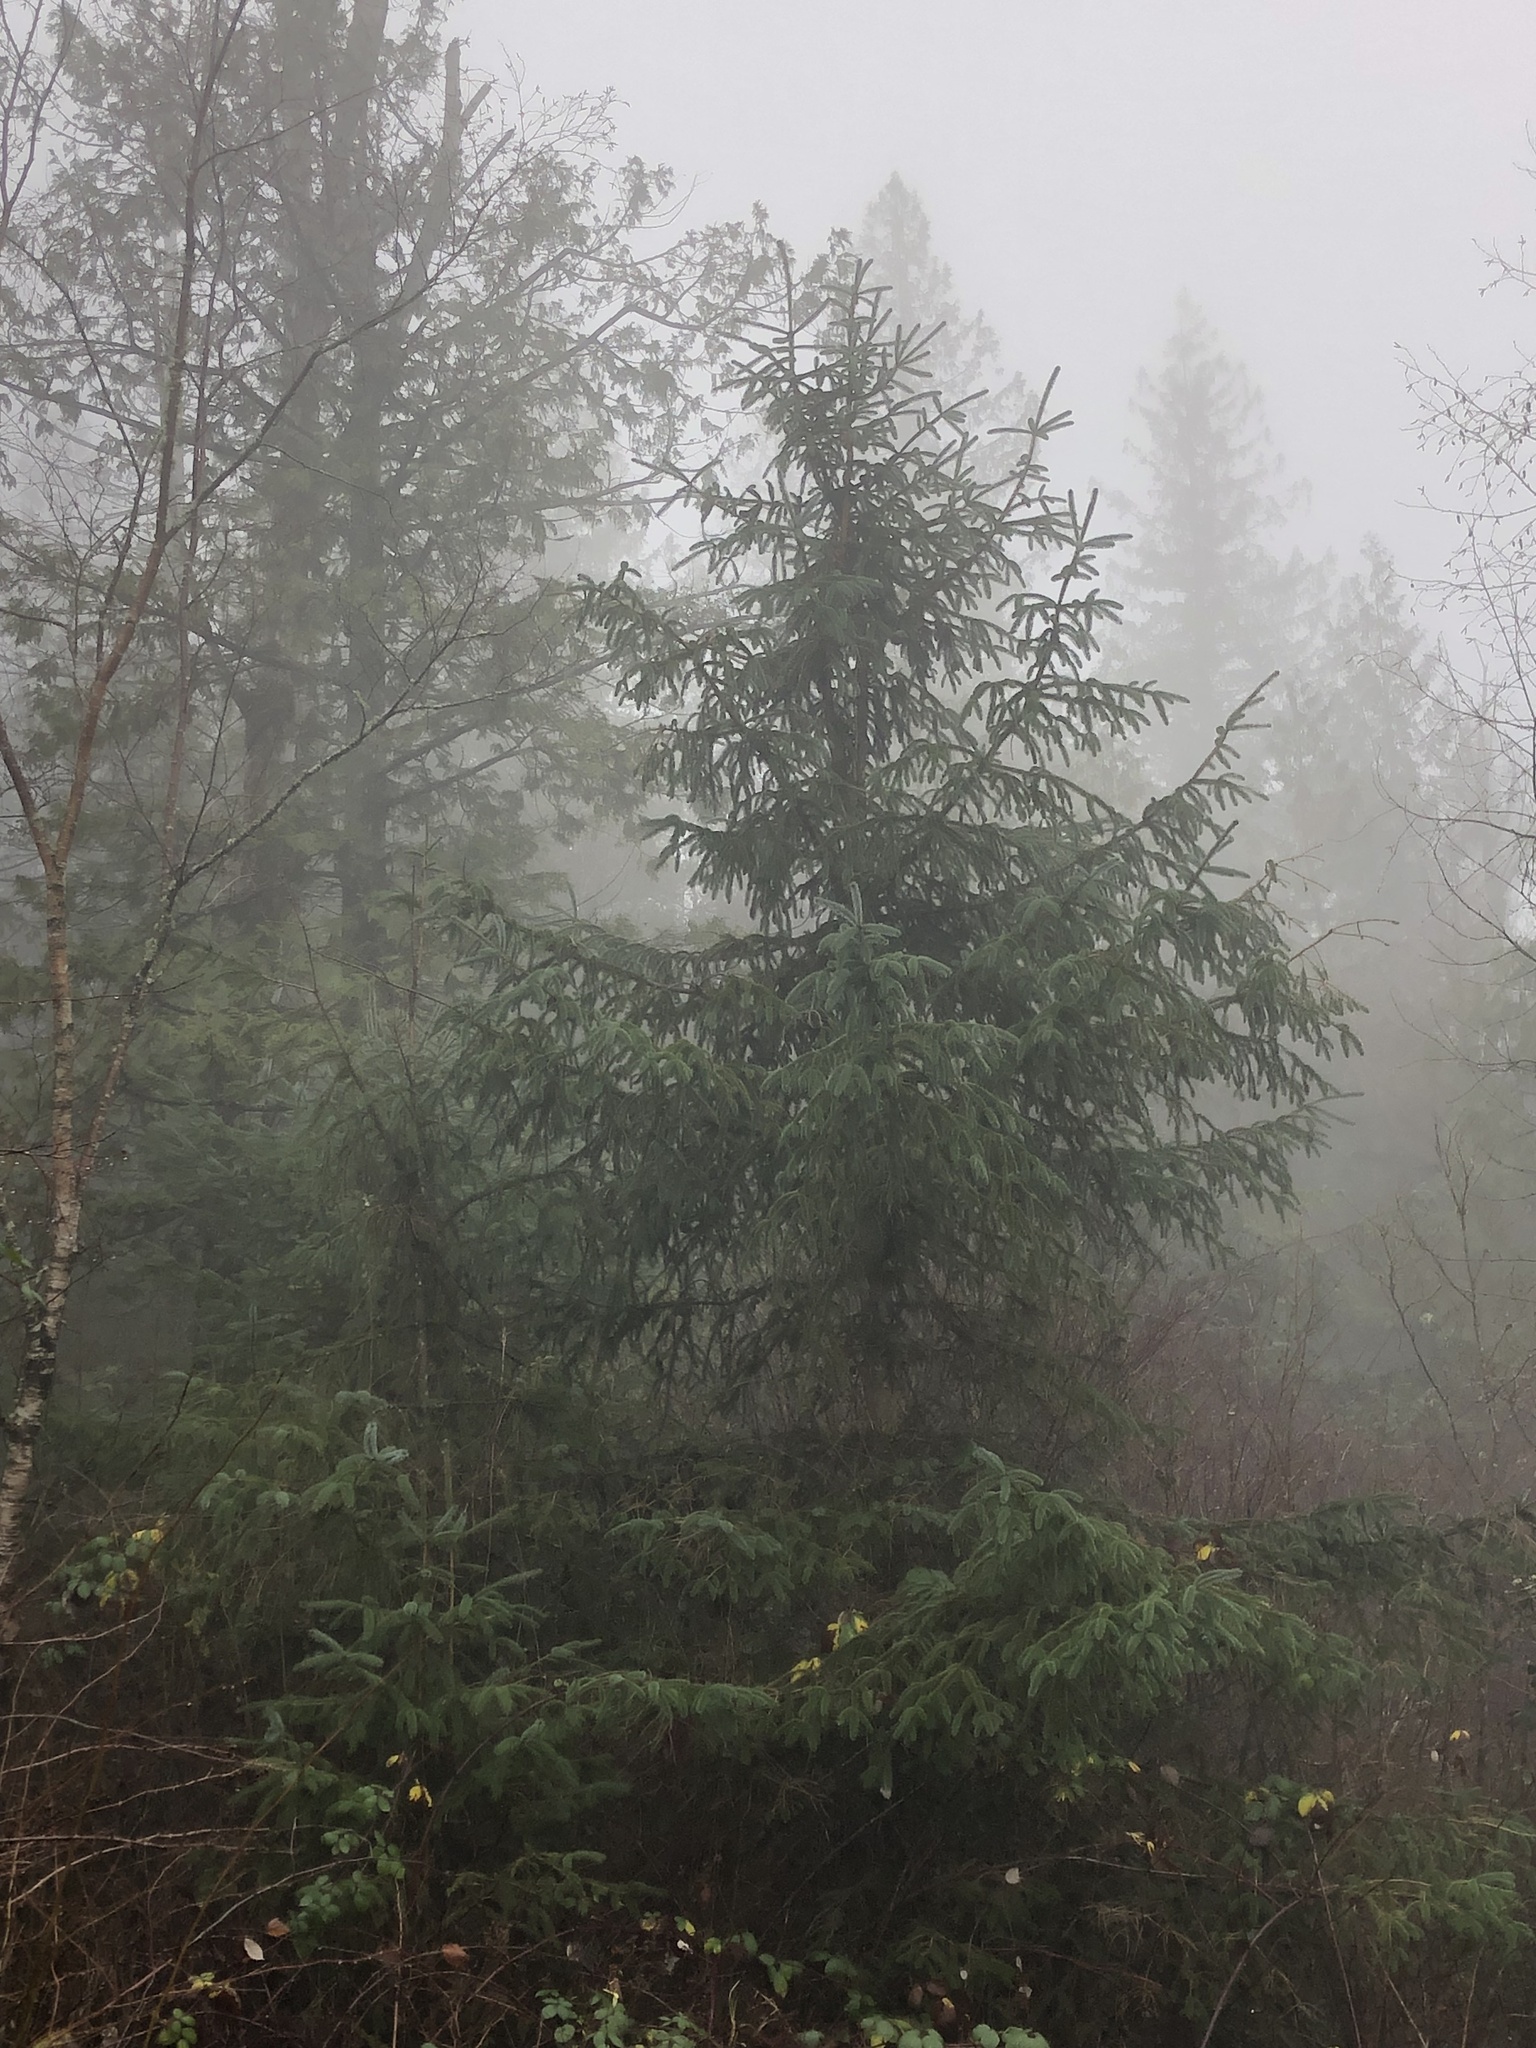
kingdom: Plantae
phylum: Tracheophyta
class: Pinopsida
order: Pinales
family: Pinaceae
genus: Picea
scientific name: Picea sitchensis
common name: Sitka spruce
